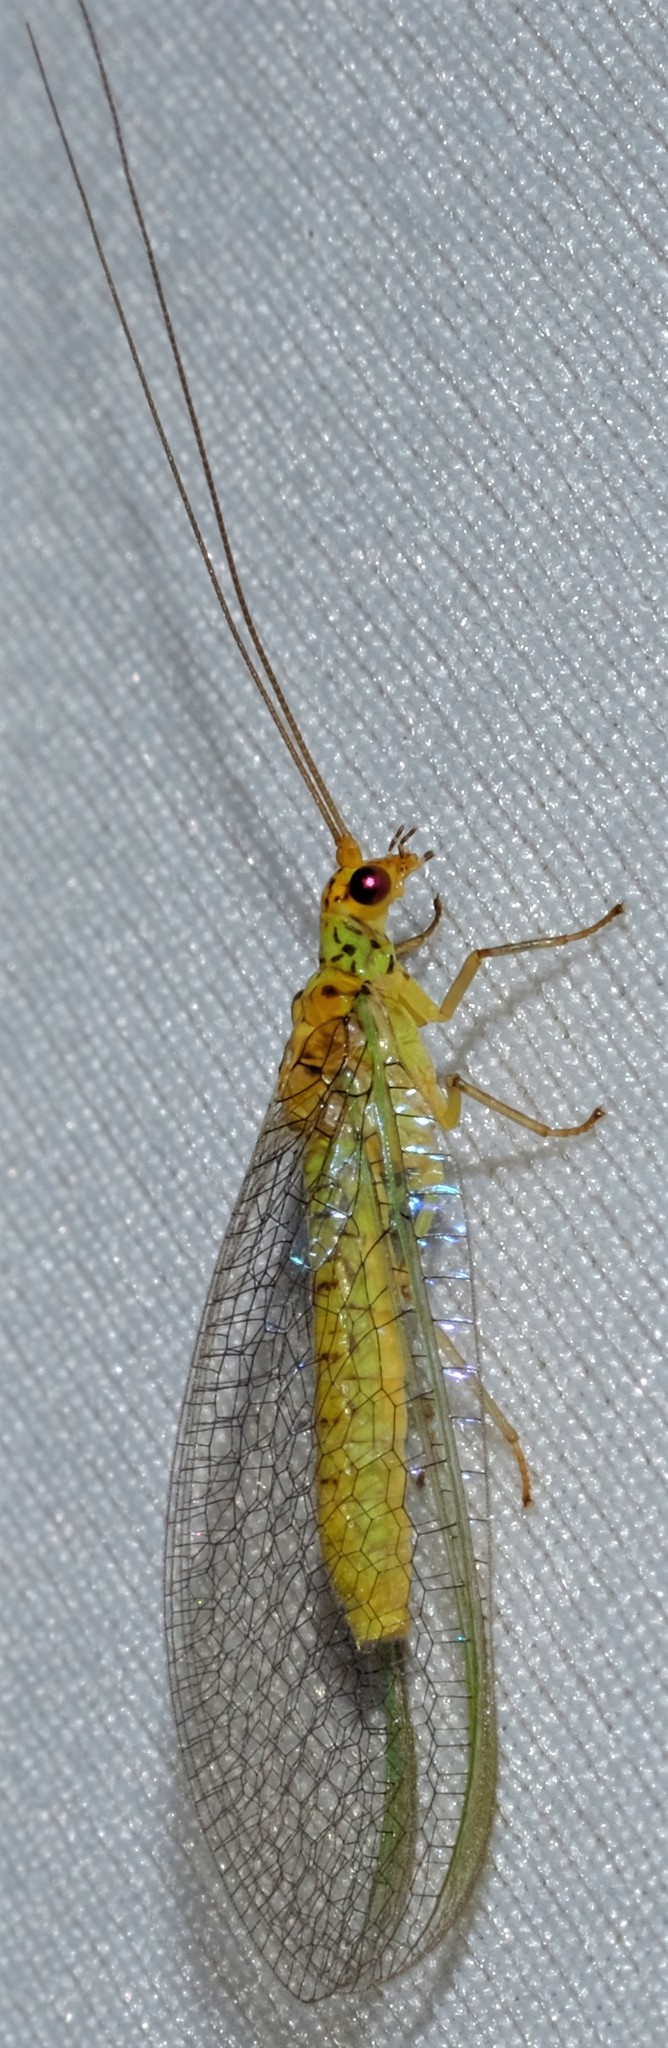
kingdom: Animalia
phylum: Arthropoda
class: Insecta
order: Neuroptera
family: Chrysopidae
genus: Dictyochrysa
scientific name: Dictyochrysa peterseni
